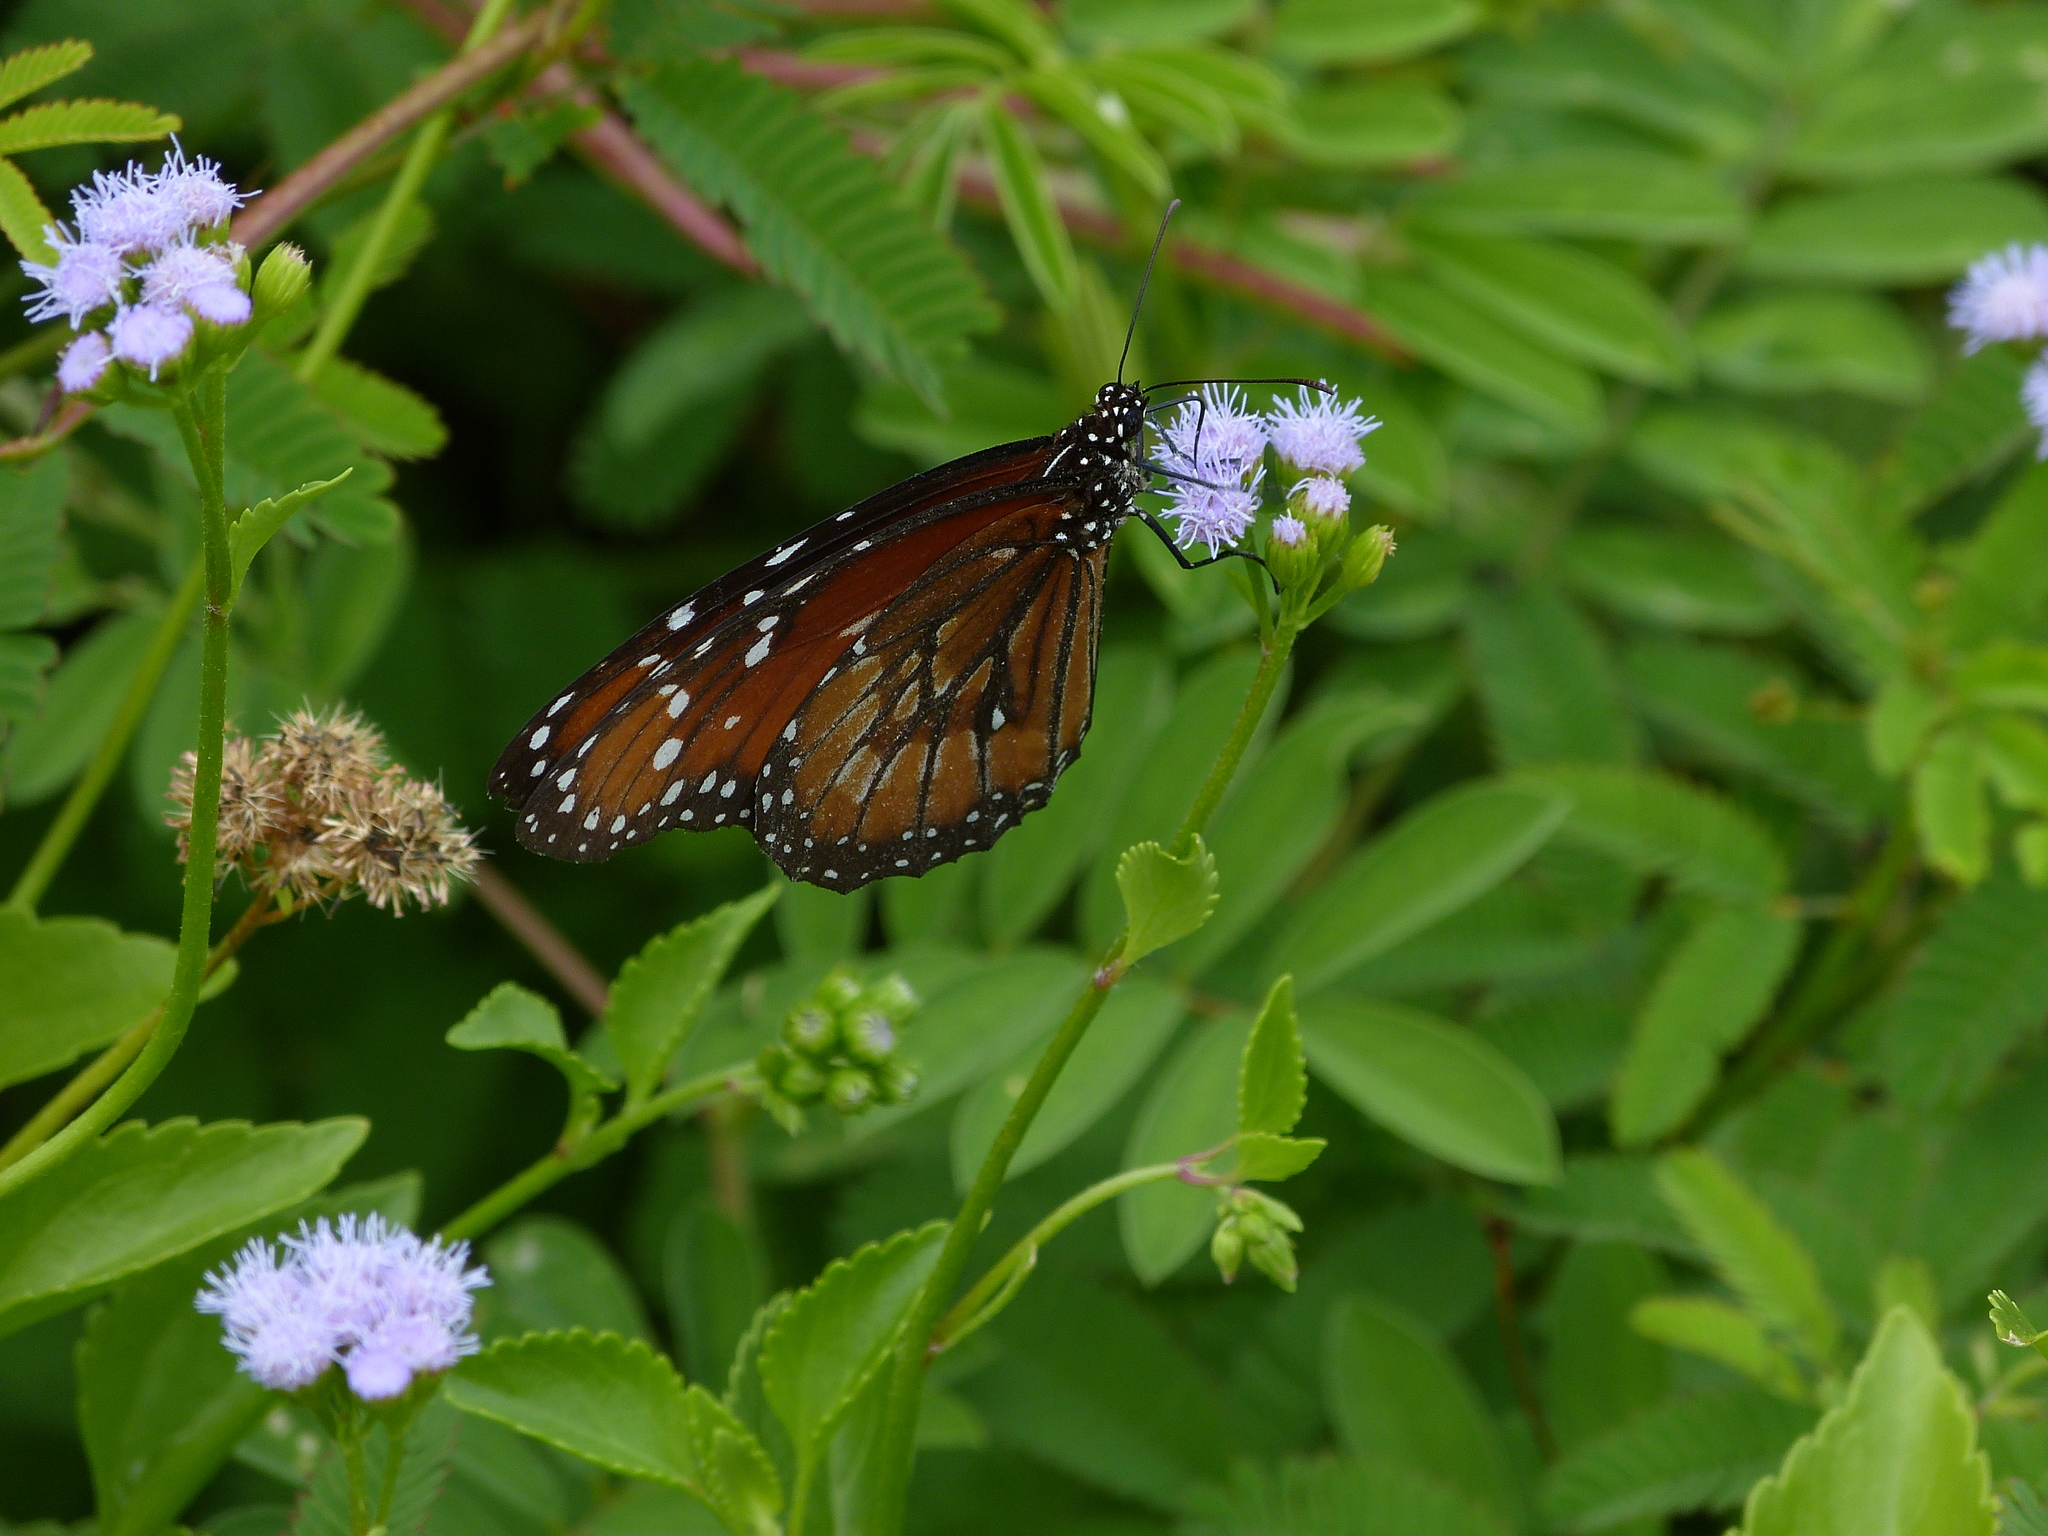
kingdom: Animalia
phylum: Arthropoda
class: Insecta
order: Lepidoptera
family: Nymphalidae
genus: Danaus
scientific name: Danaus eresimus
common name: Soldier
